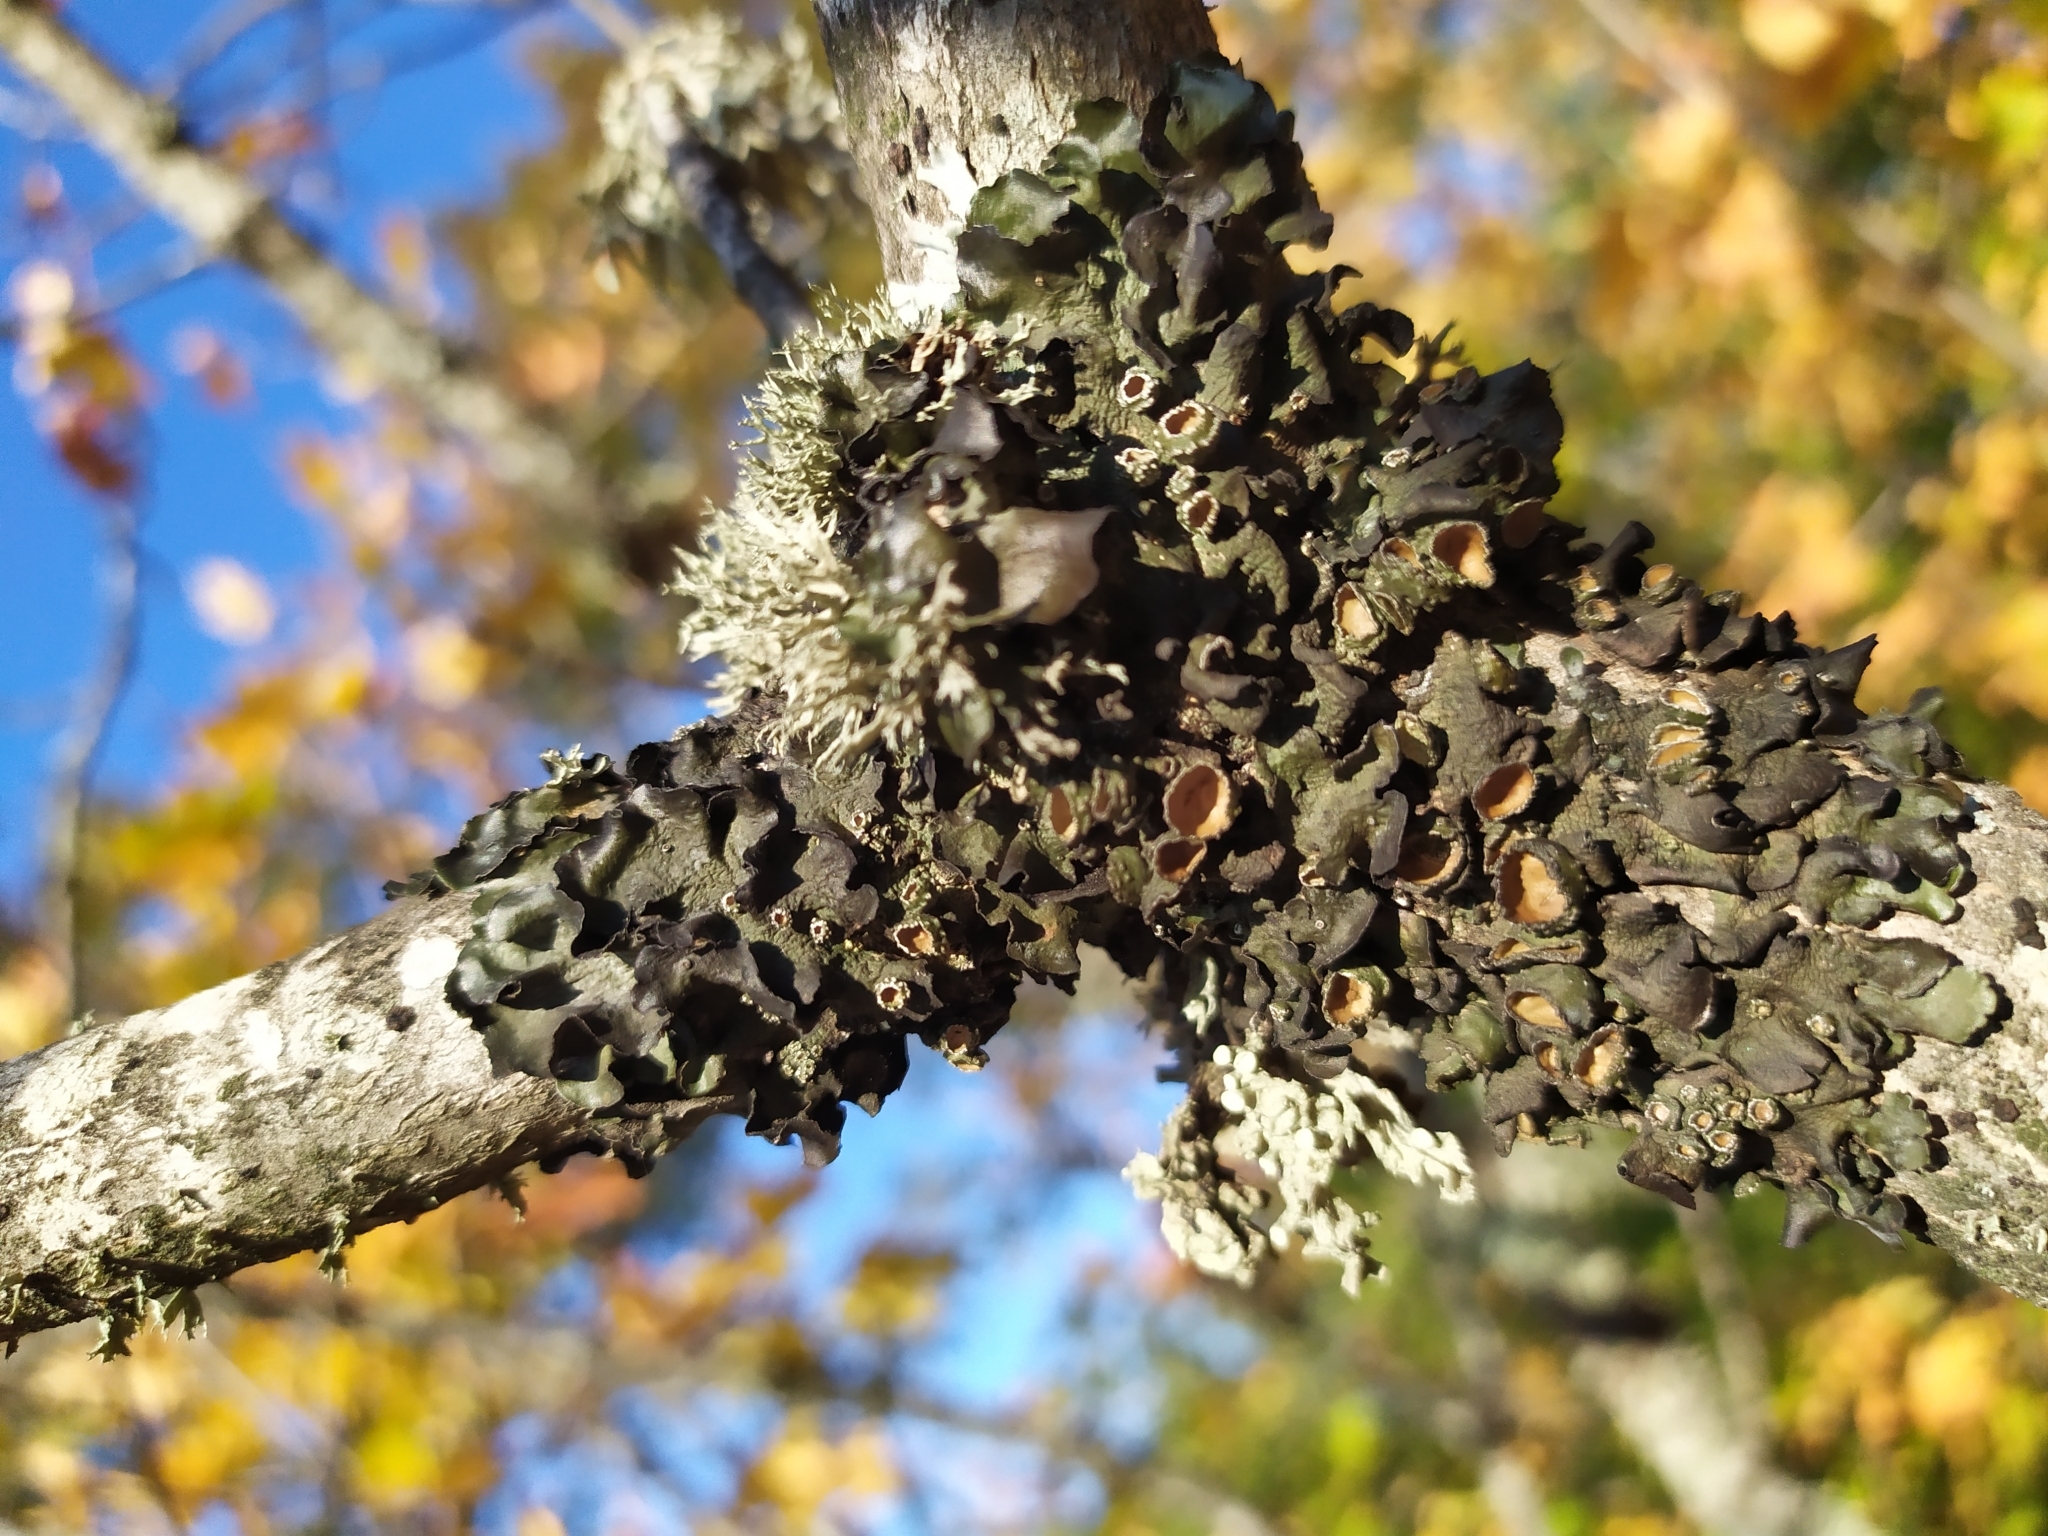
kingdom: Fungi
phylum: Ascomycota
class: Lecanoromycetes
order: Lecanorales
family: Parmeliaceae
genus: Pleurosticta
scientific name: Pleurosticta acetabulum
